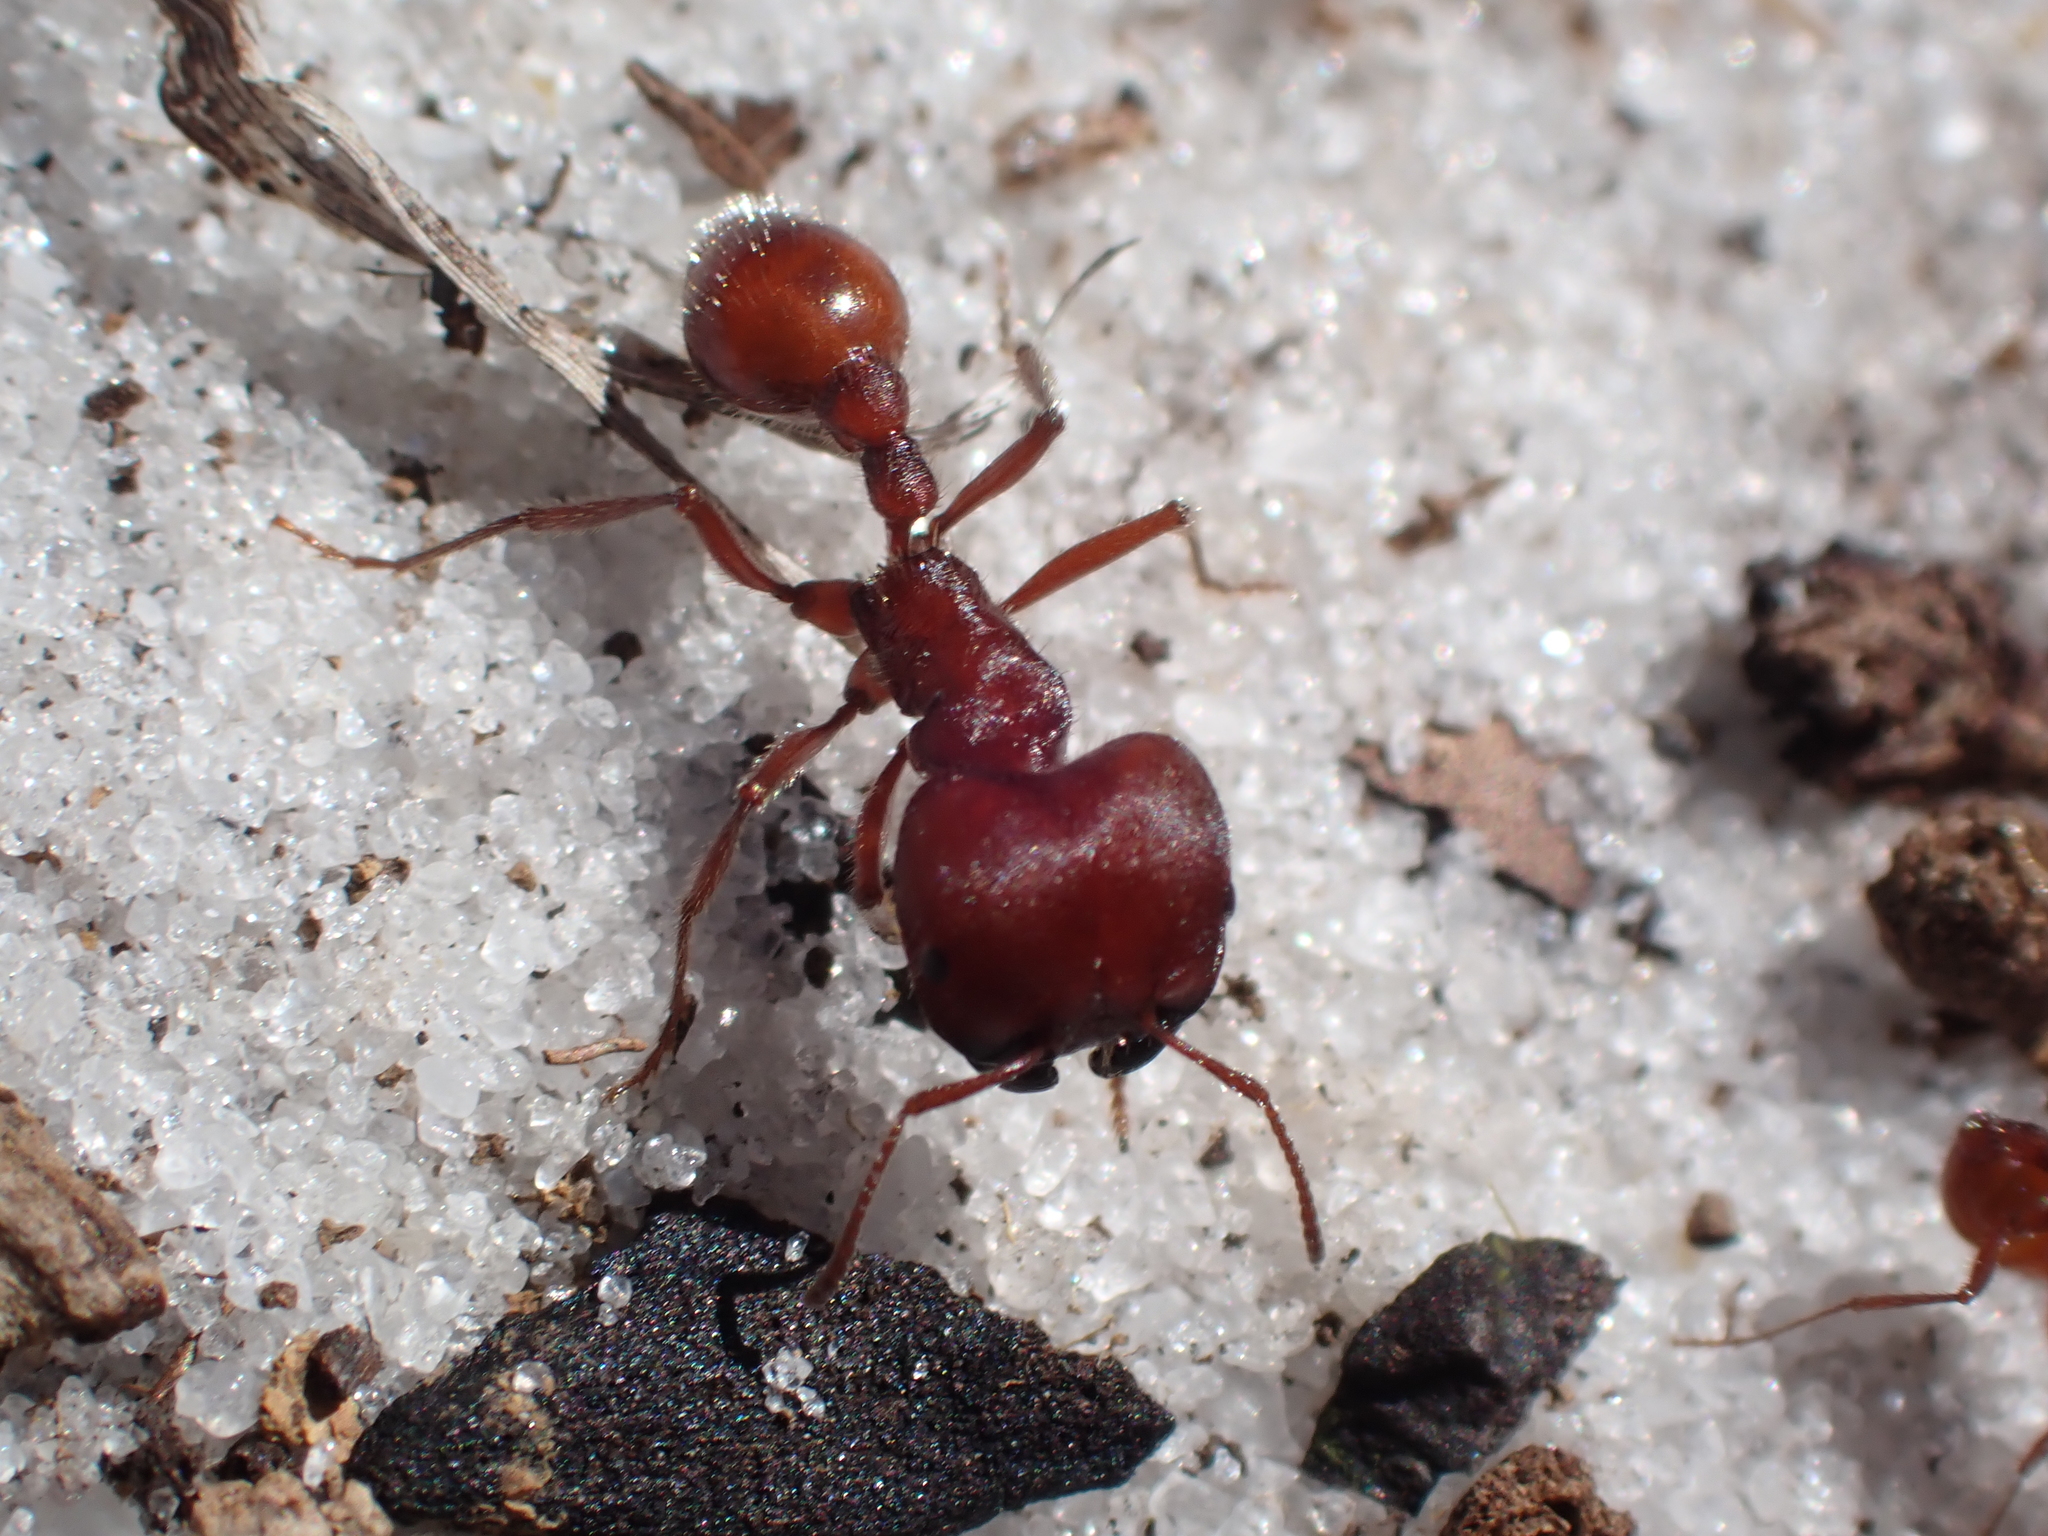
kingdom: Animalia
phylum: Arthropoda
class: Insecta
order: Hymenoptera
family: Formicidae
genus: Pogonomyrmex
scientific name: Pogonomyrmex badius
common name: Florida harvester ant
